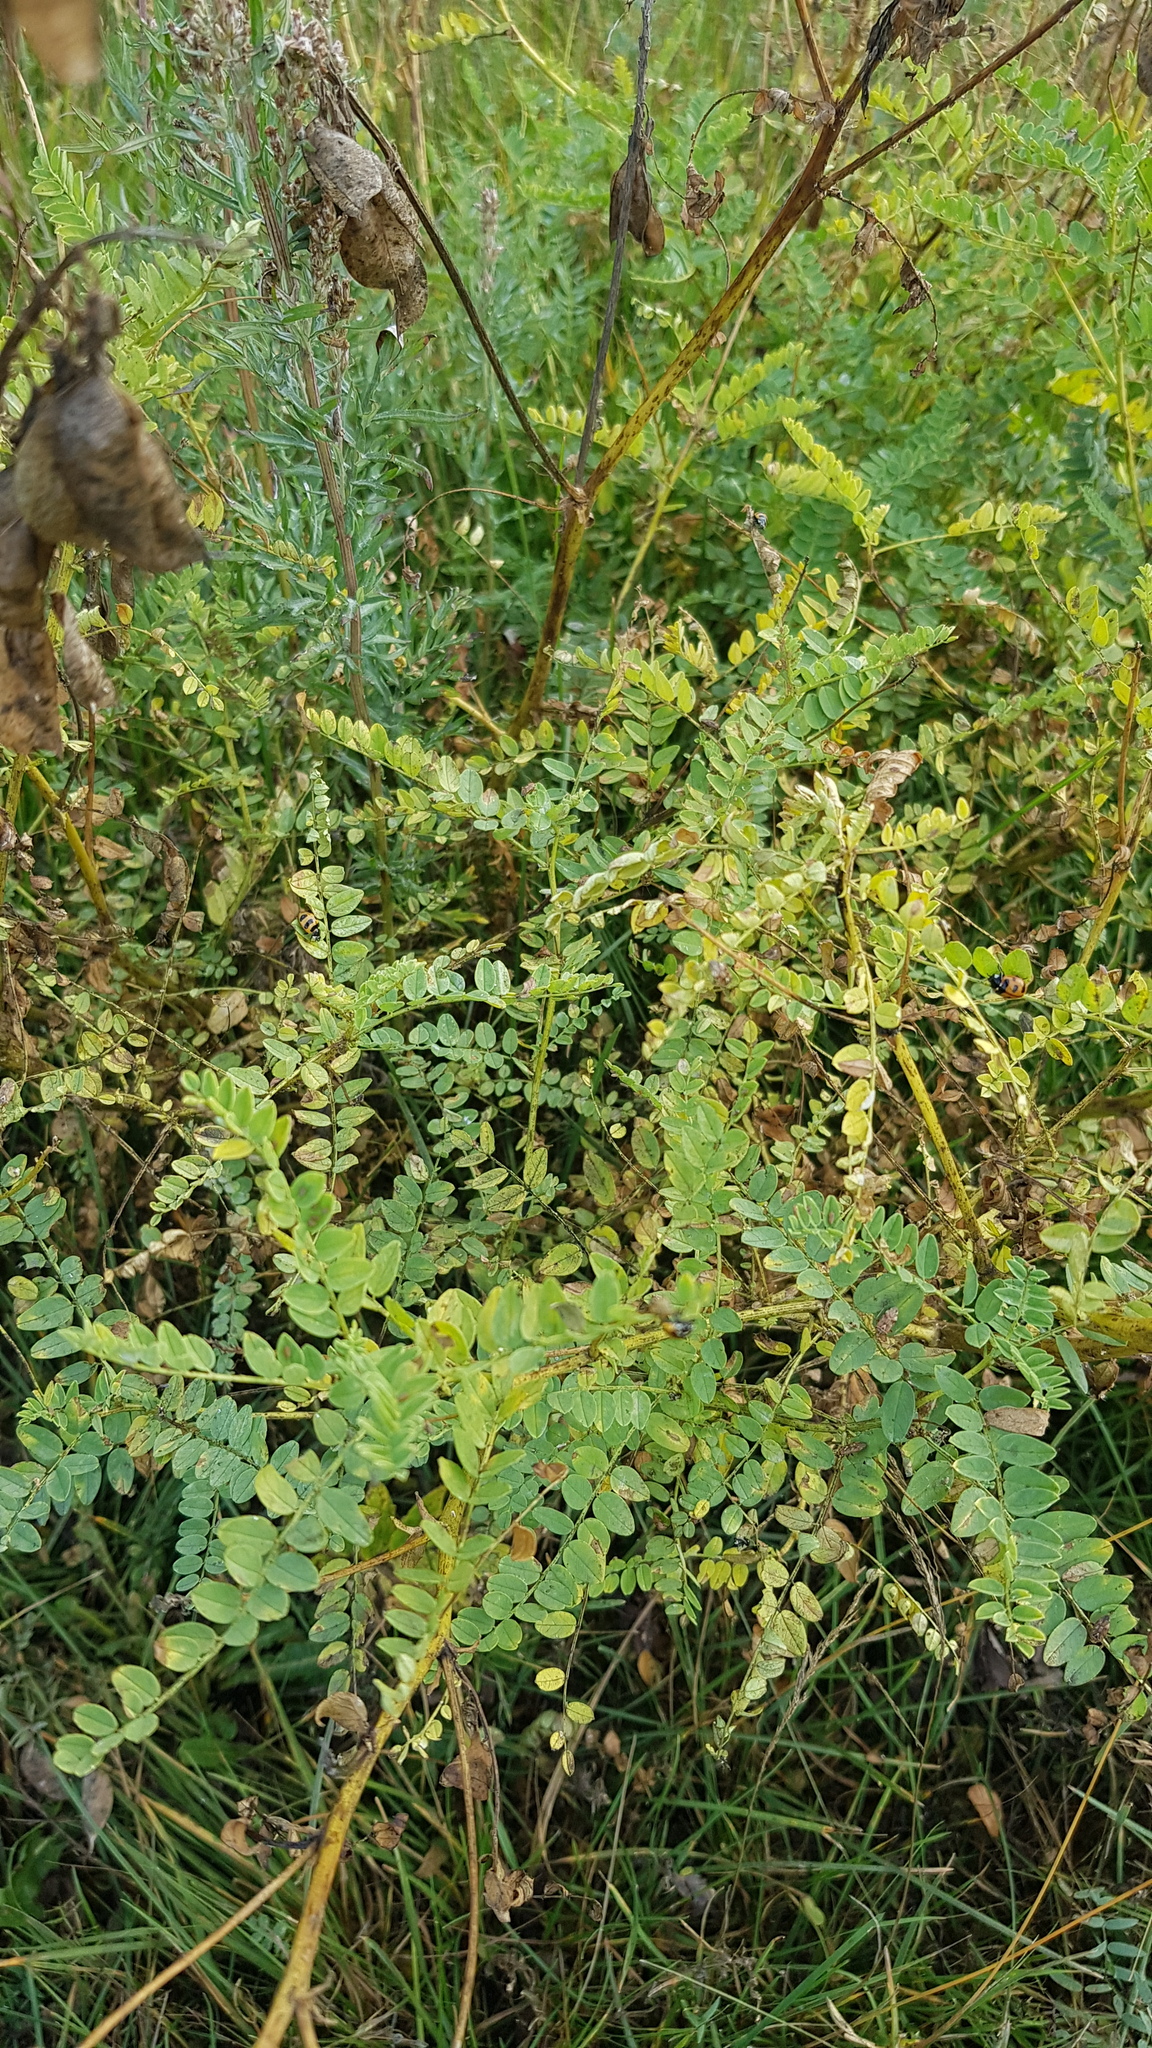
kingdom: Plantae
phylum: Tracheophyta
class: Magnoliopsida
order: Fabales
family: Fabaceae
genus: Astragalus
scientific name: Astragalus mongholicus
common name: Membranous milk-vetch
